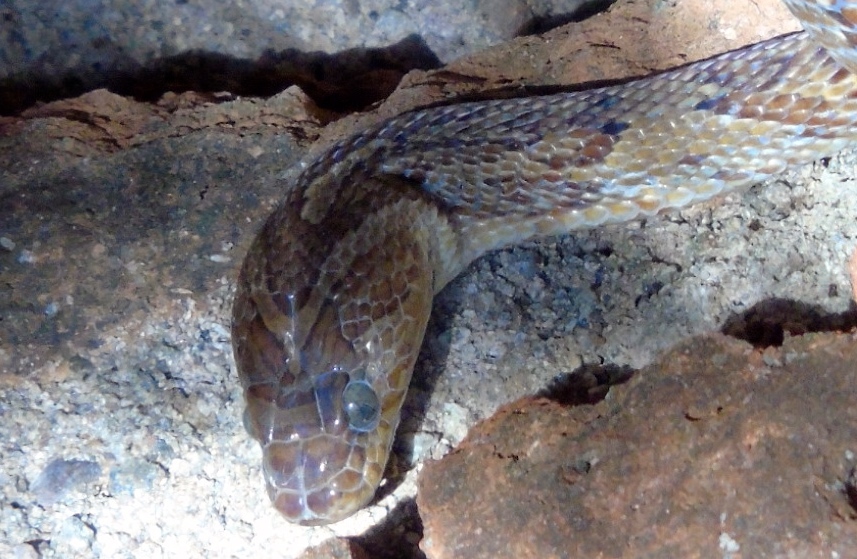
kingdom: Animalia
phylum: Chordata
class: Squamata
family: Colubridae
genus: Trimorphodon
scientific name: Trimorphodon paucimaculatus
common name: Sinaloan lyresnake
